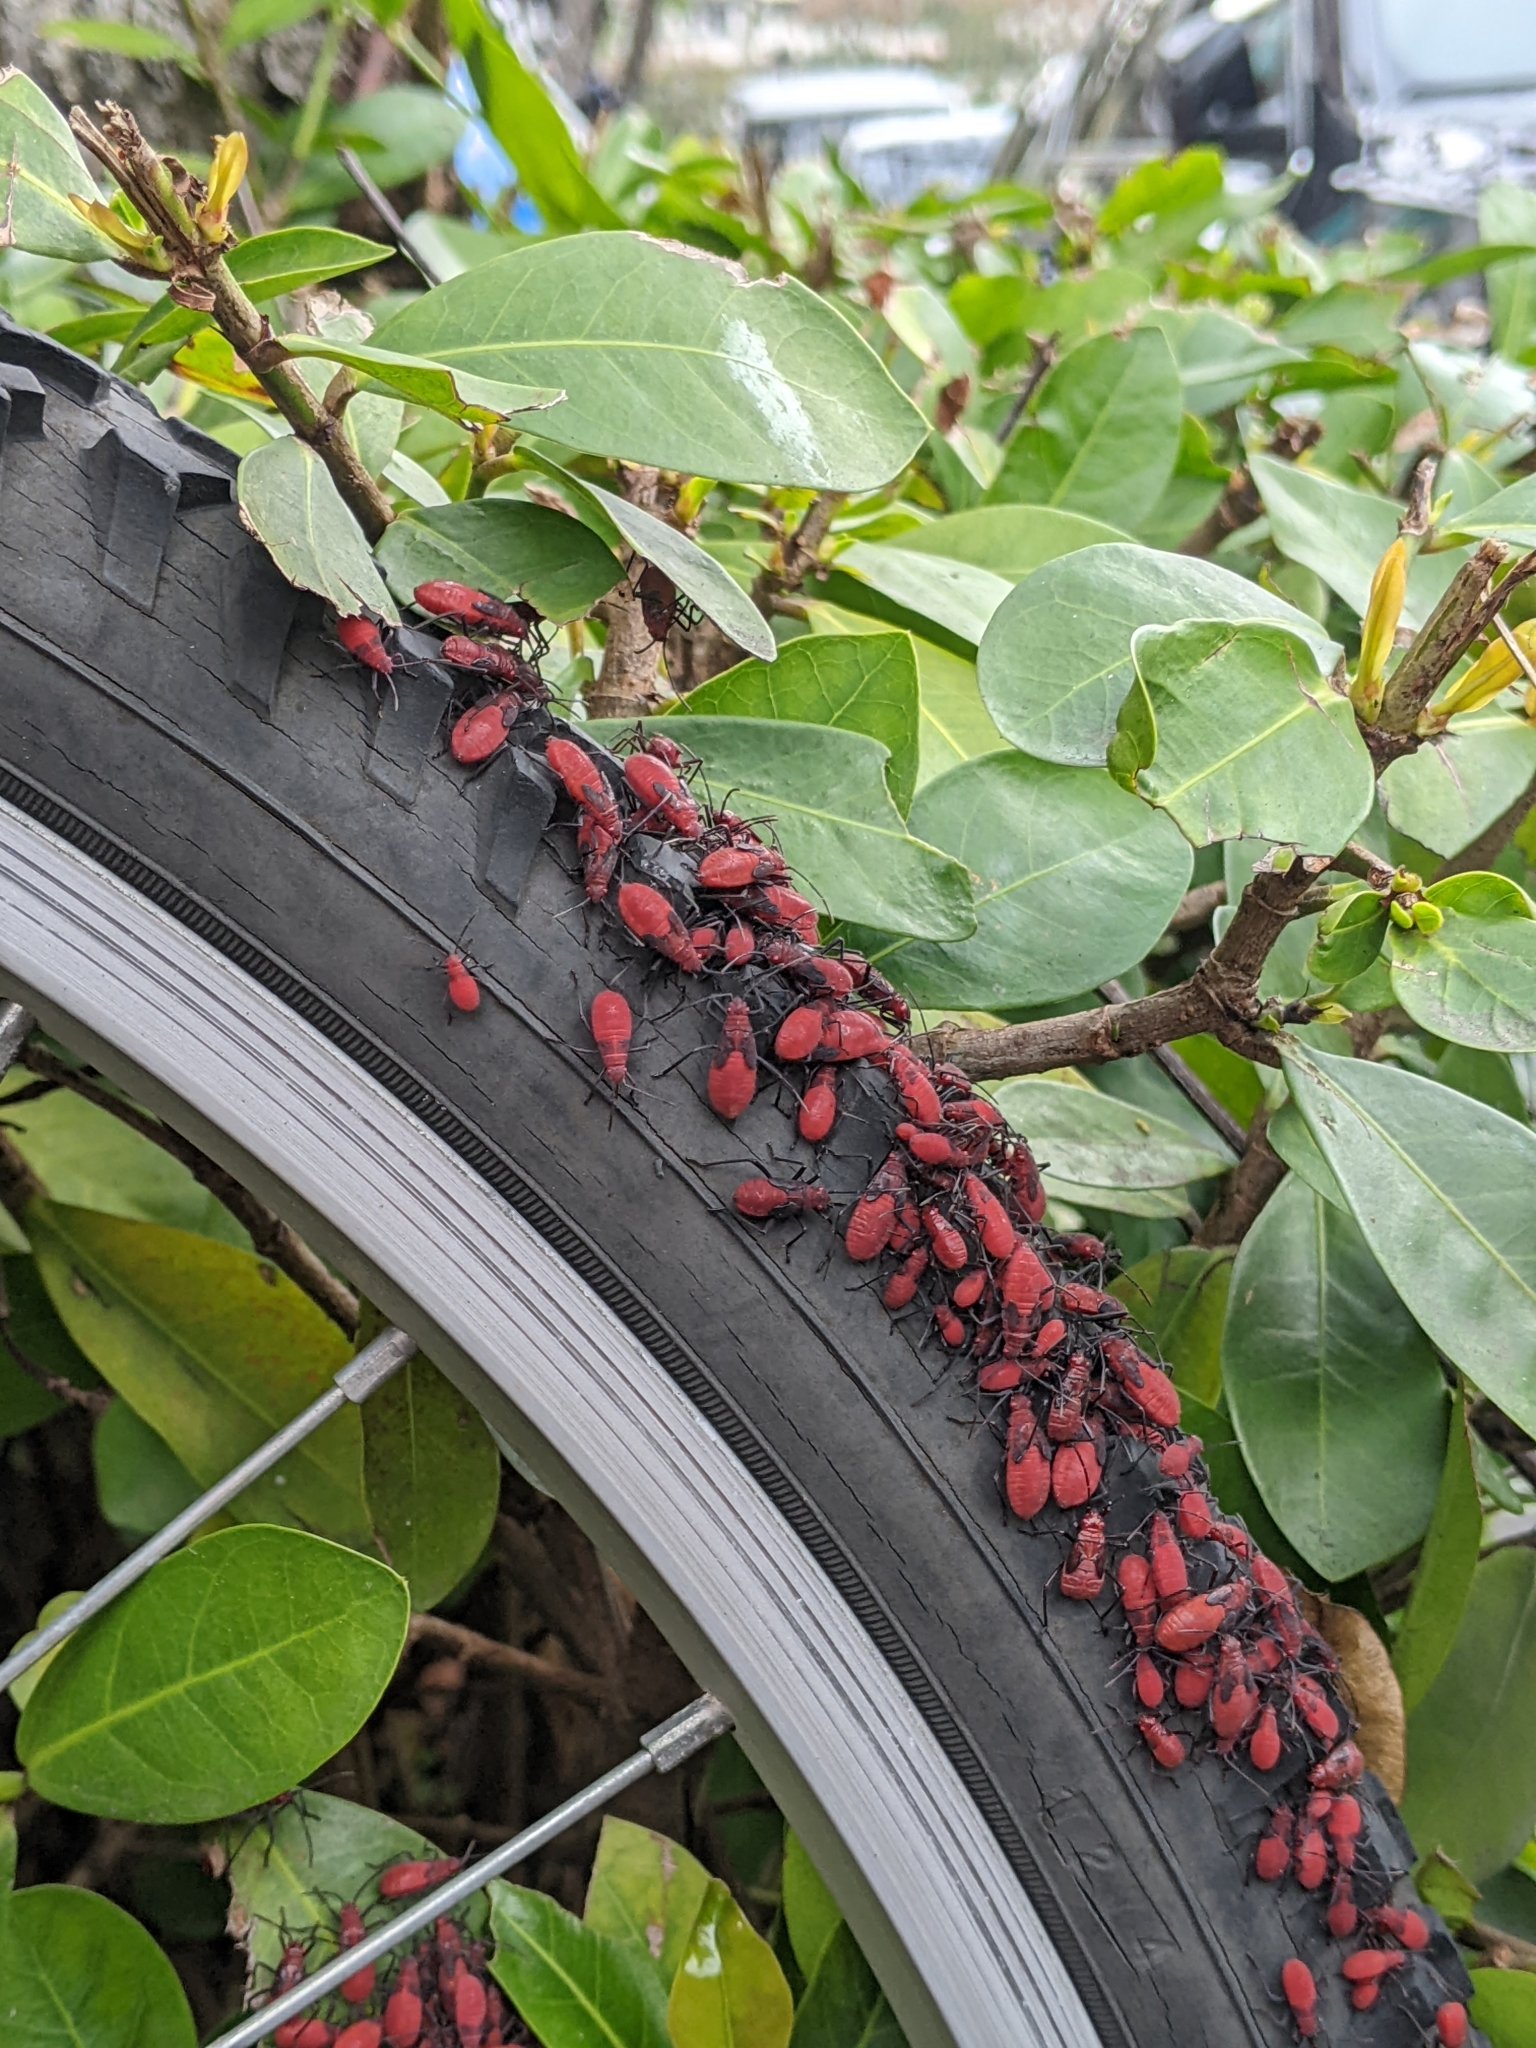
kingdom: Animalia
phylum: Arthropoda
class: Insecta
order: Hemiptera
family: Rhopalidae
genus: Leptocoris
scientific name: Leptocoris vicinus
